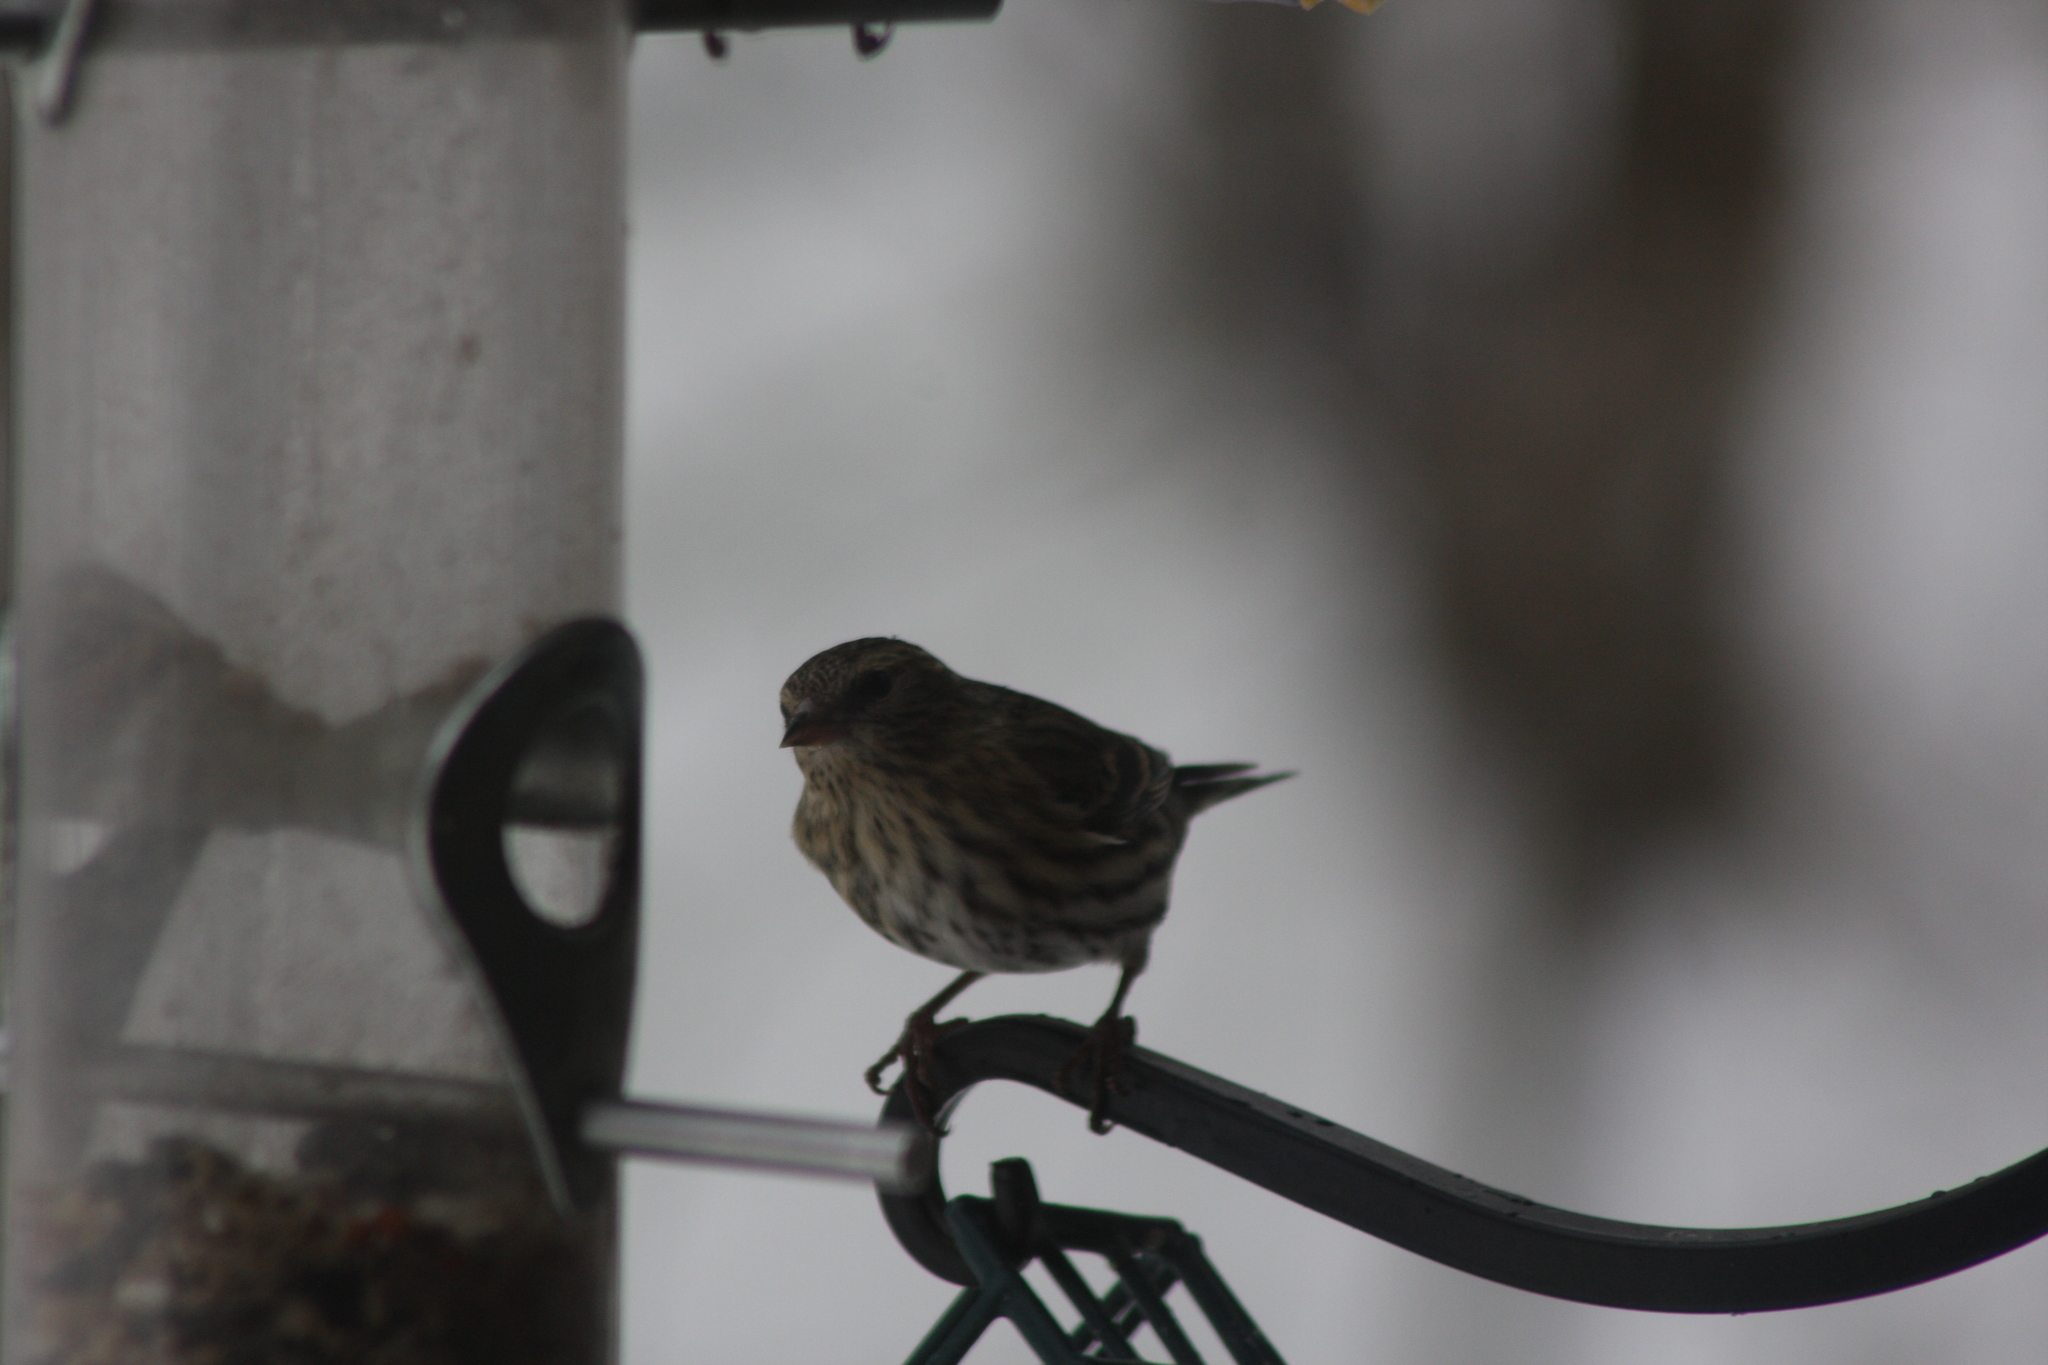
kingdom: Animalia
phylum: Chordata
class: Aves
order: Passeriformes
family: Fringillidae
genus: Spinus
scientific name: Spinus pinus
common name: Pine siskin
